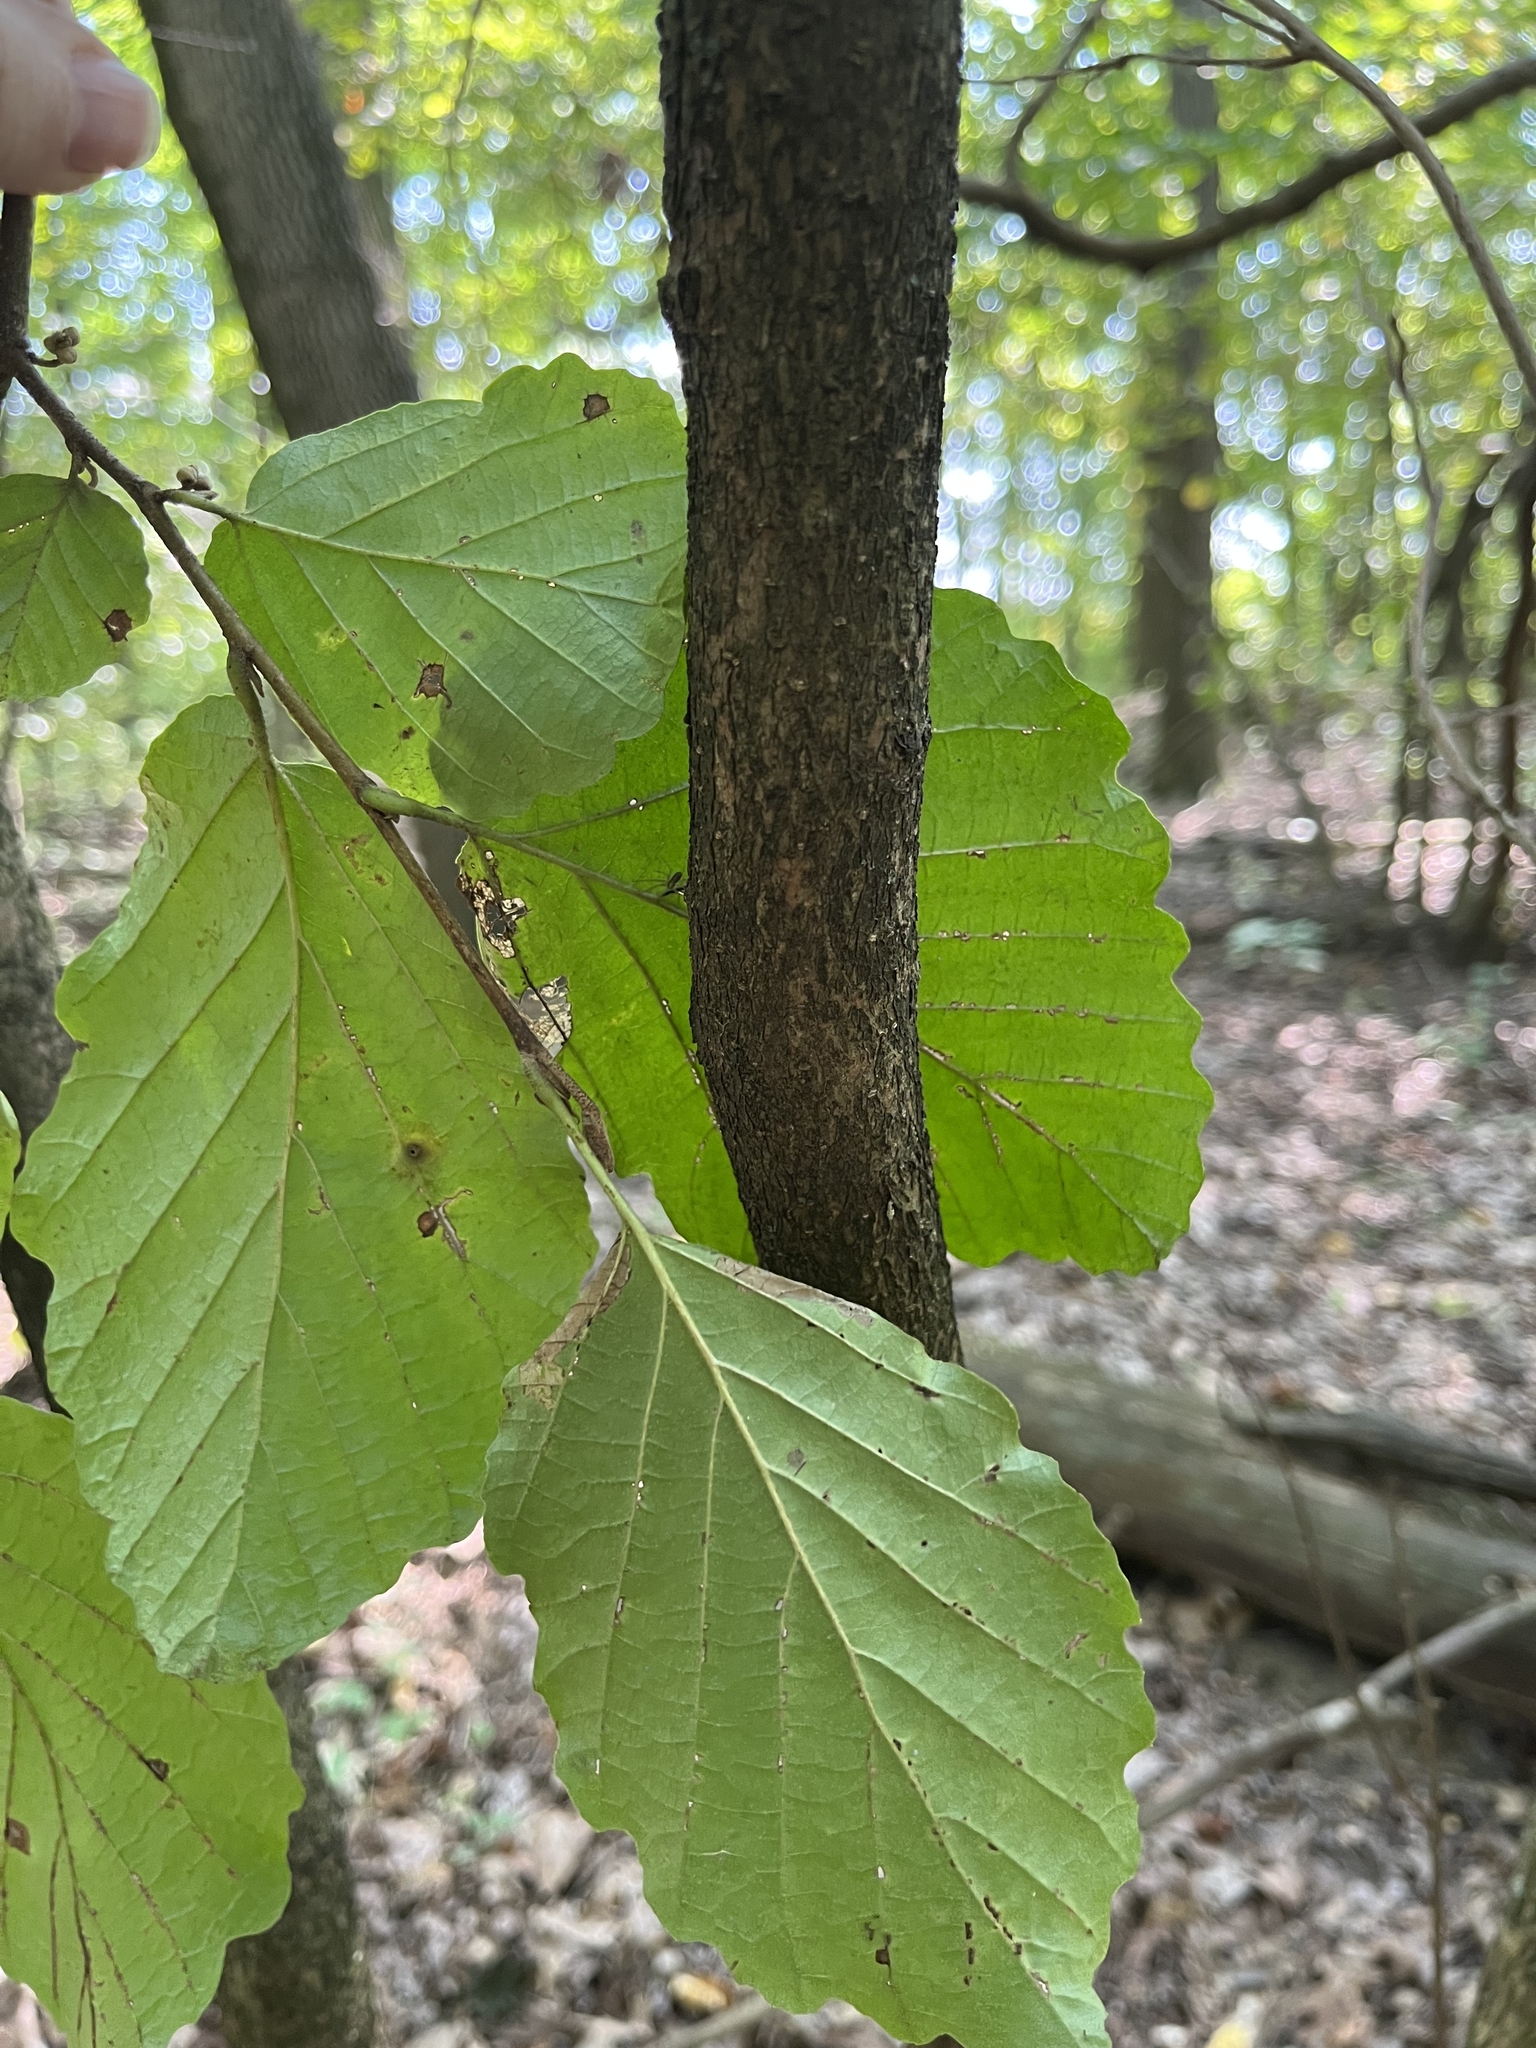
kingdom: Plantae
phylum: Tracheophyta
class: Magnoliopsida
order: Saxifragales
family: Hamamelidaceae
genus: Hamamelis
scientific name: Hamamelis virginiana
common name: Witch-hazel
